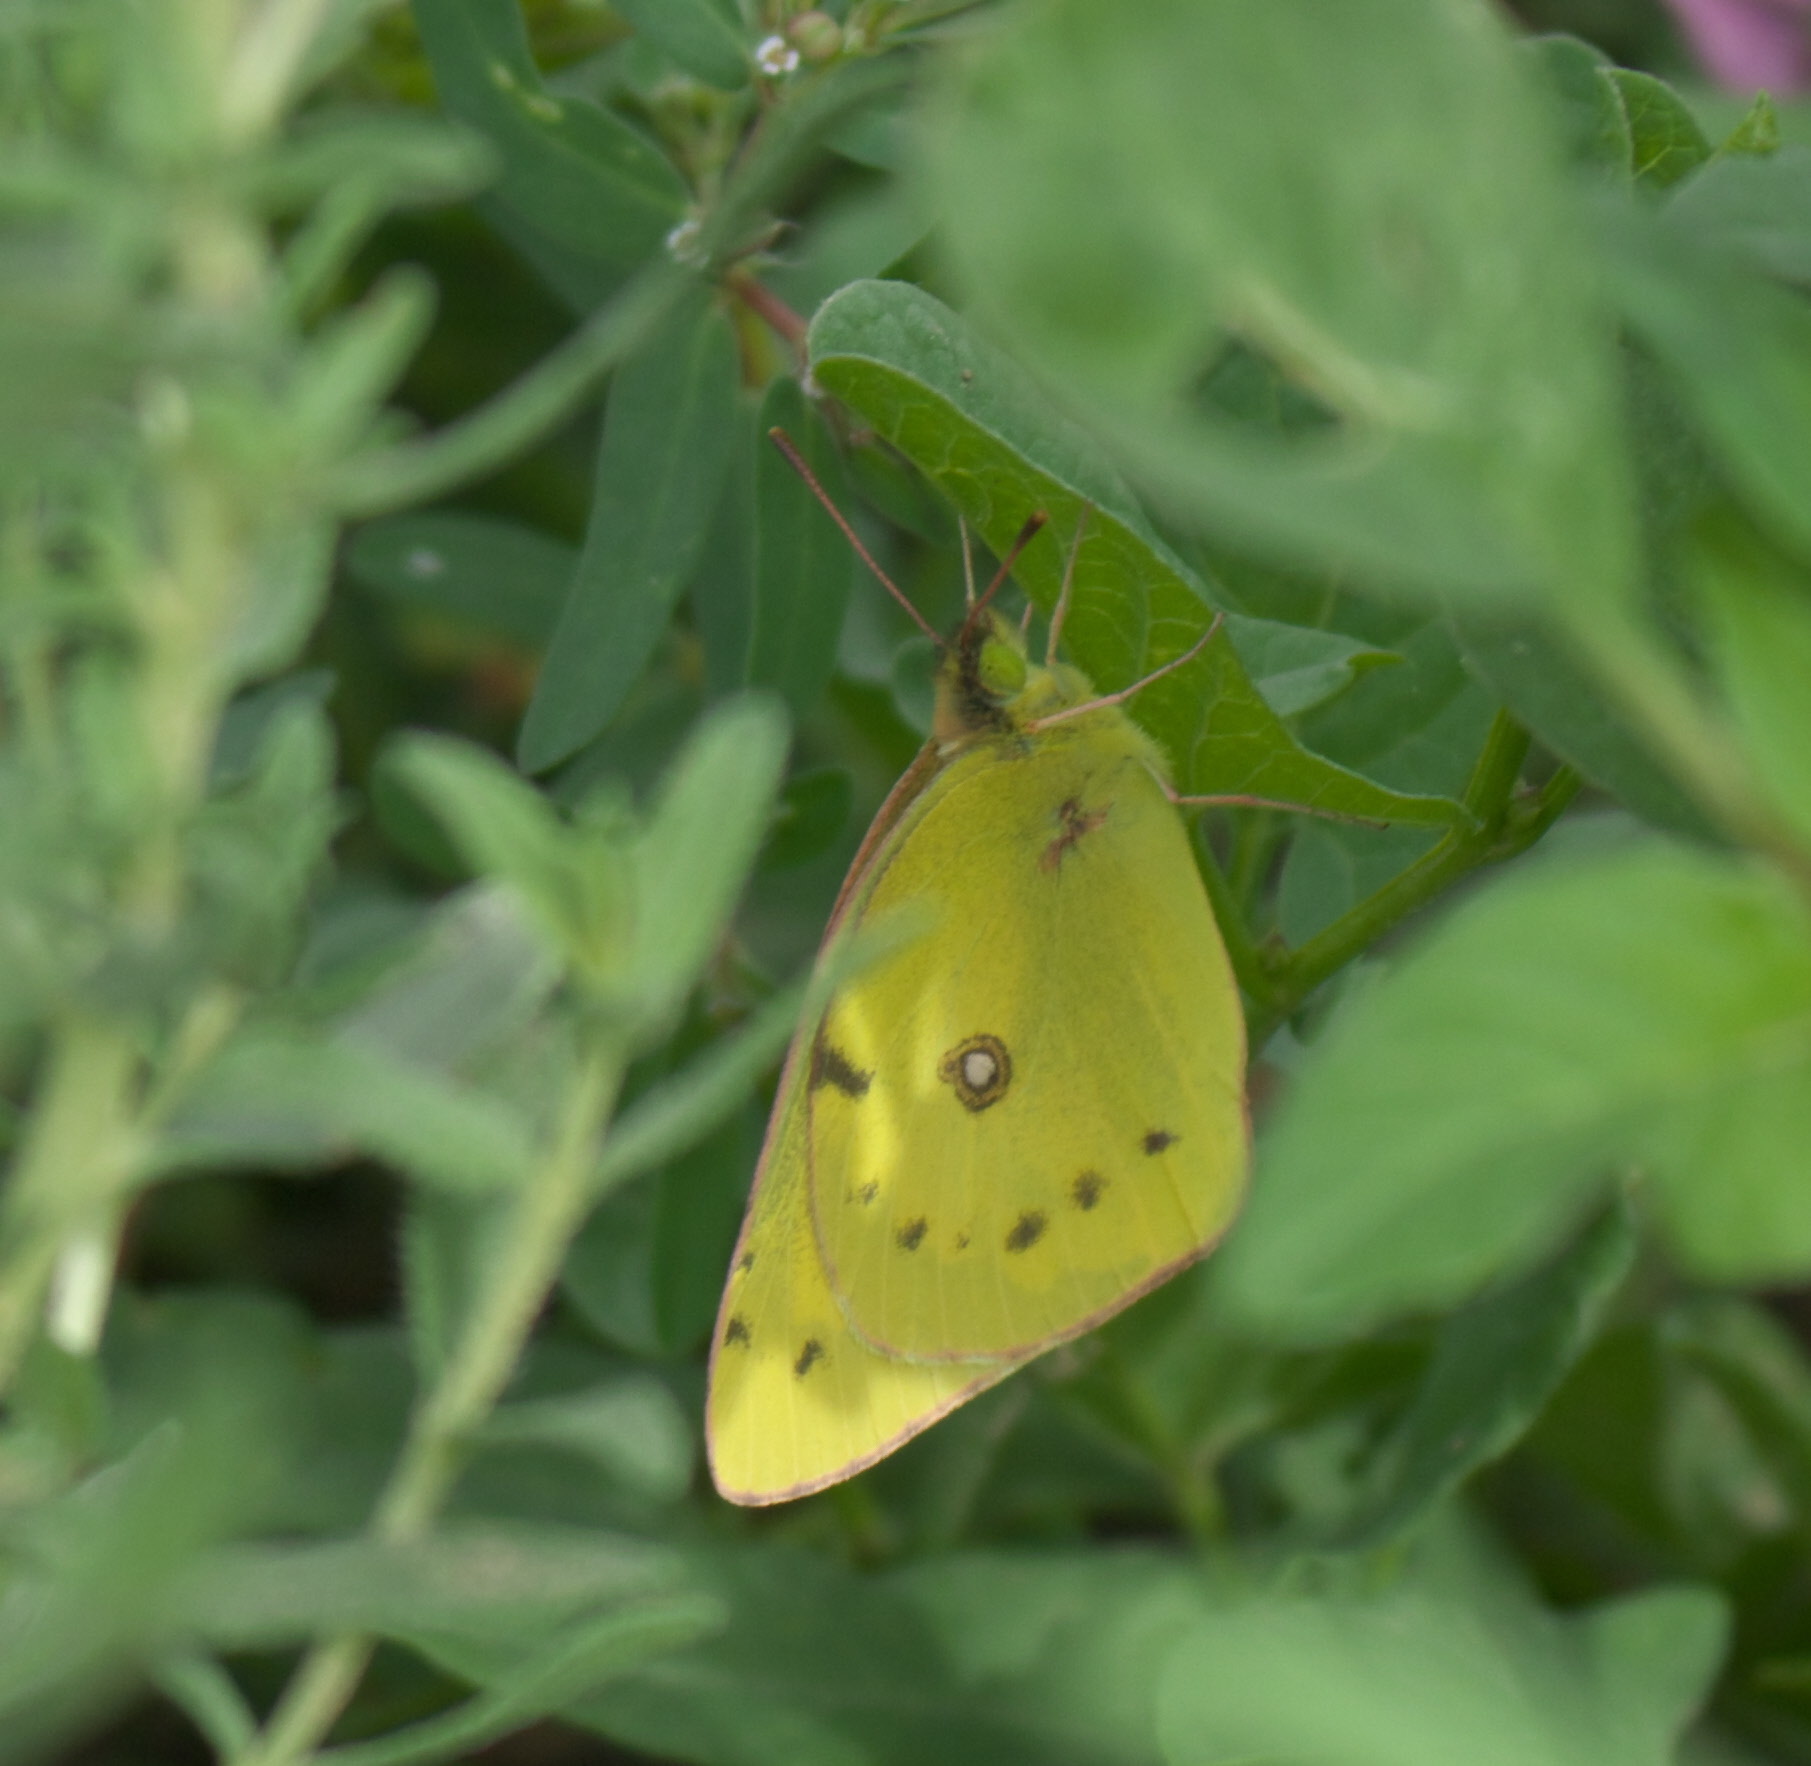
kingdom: Animalia
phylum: Arthropoda
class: Insecta
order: Lepidoptera
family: Pieridae
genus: Colias
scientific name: Colias eurytheme
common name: Alfalfa butterfly
